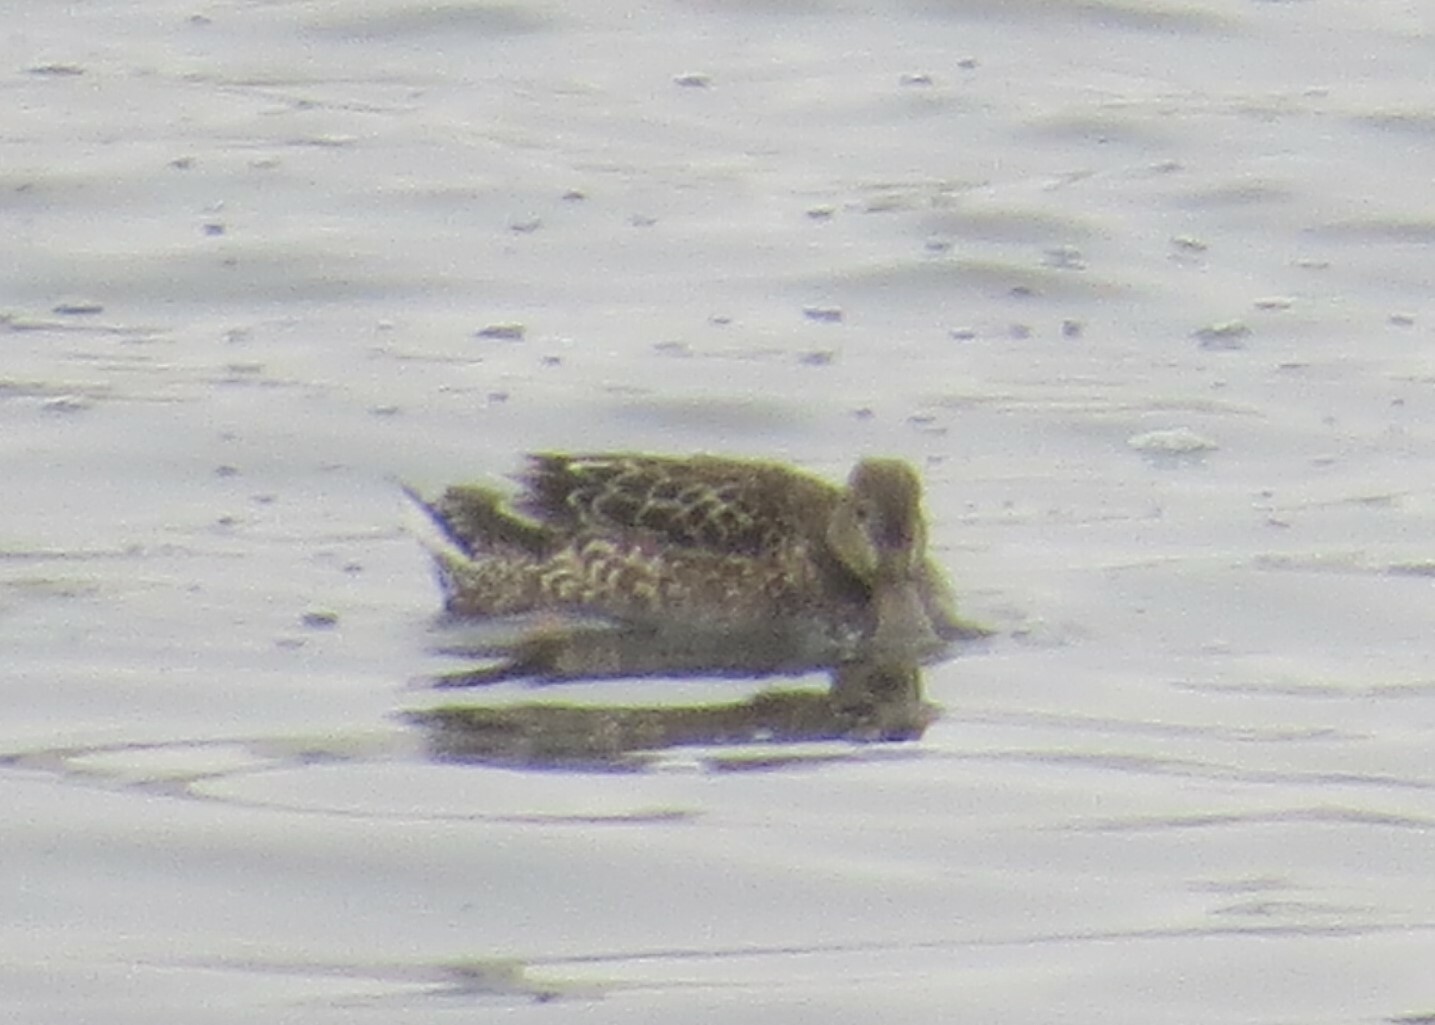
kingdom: Animalia
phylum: Chordata
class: Aves
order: Anseriformes
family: Anatidae
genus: Spatula
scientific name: Spatula clypeata
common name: Northern shoveler
